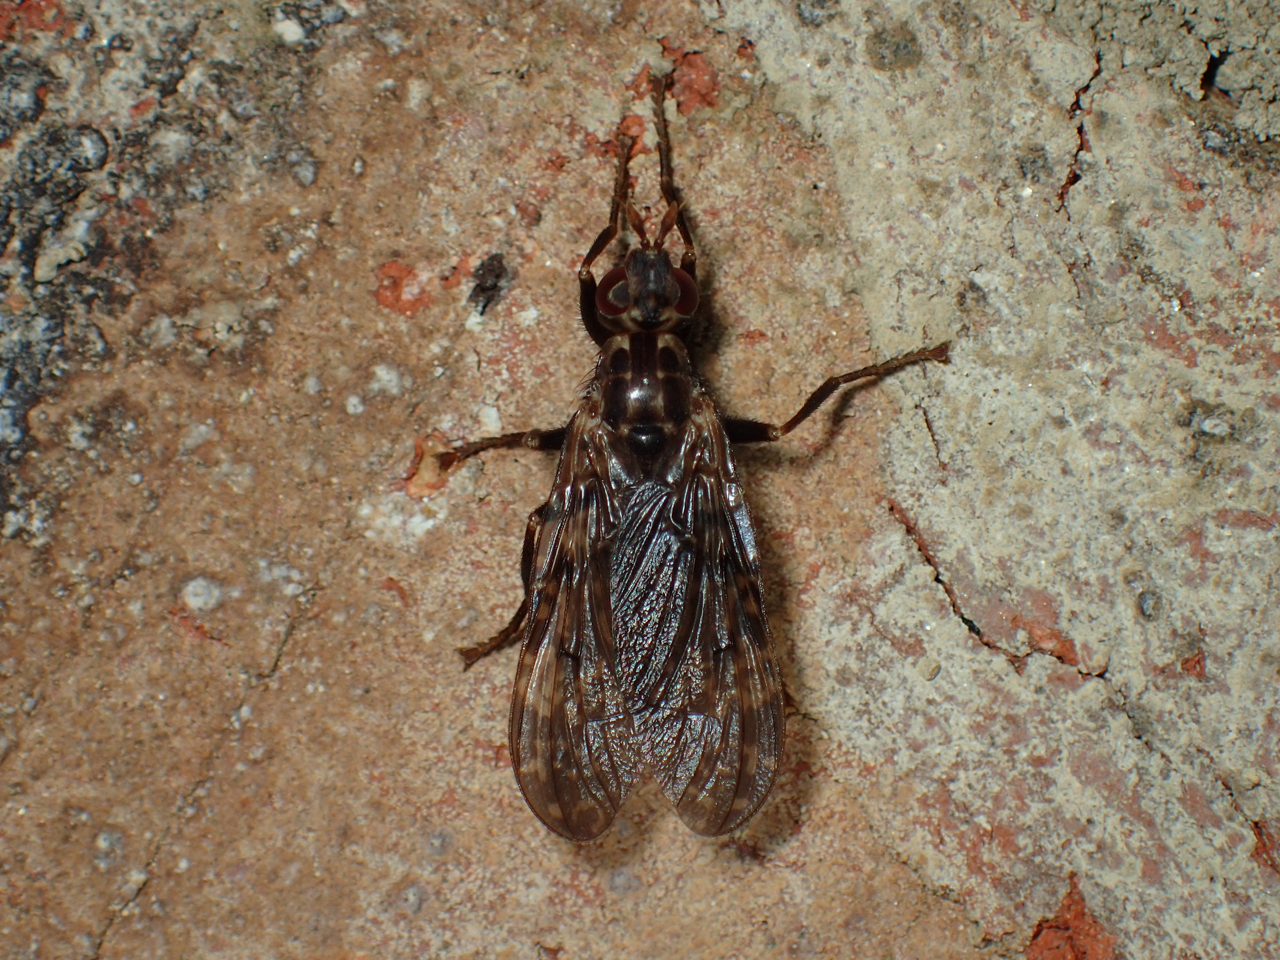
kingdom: Animalia
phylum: Arthropoda
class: Insecta
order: Diptera
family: Pyrgotidae
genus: Pyrgota
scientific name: Pyrgota valida
